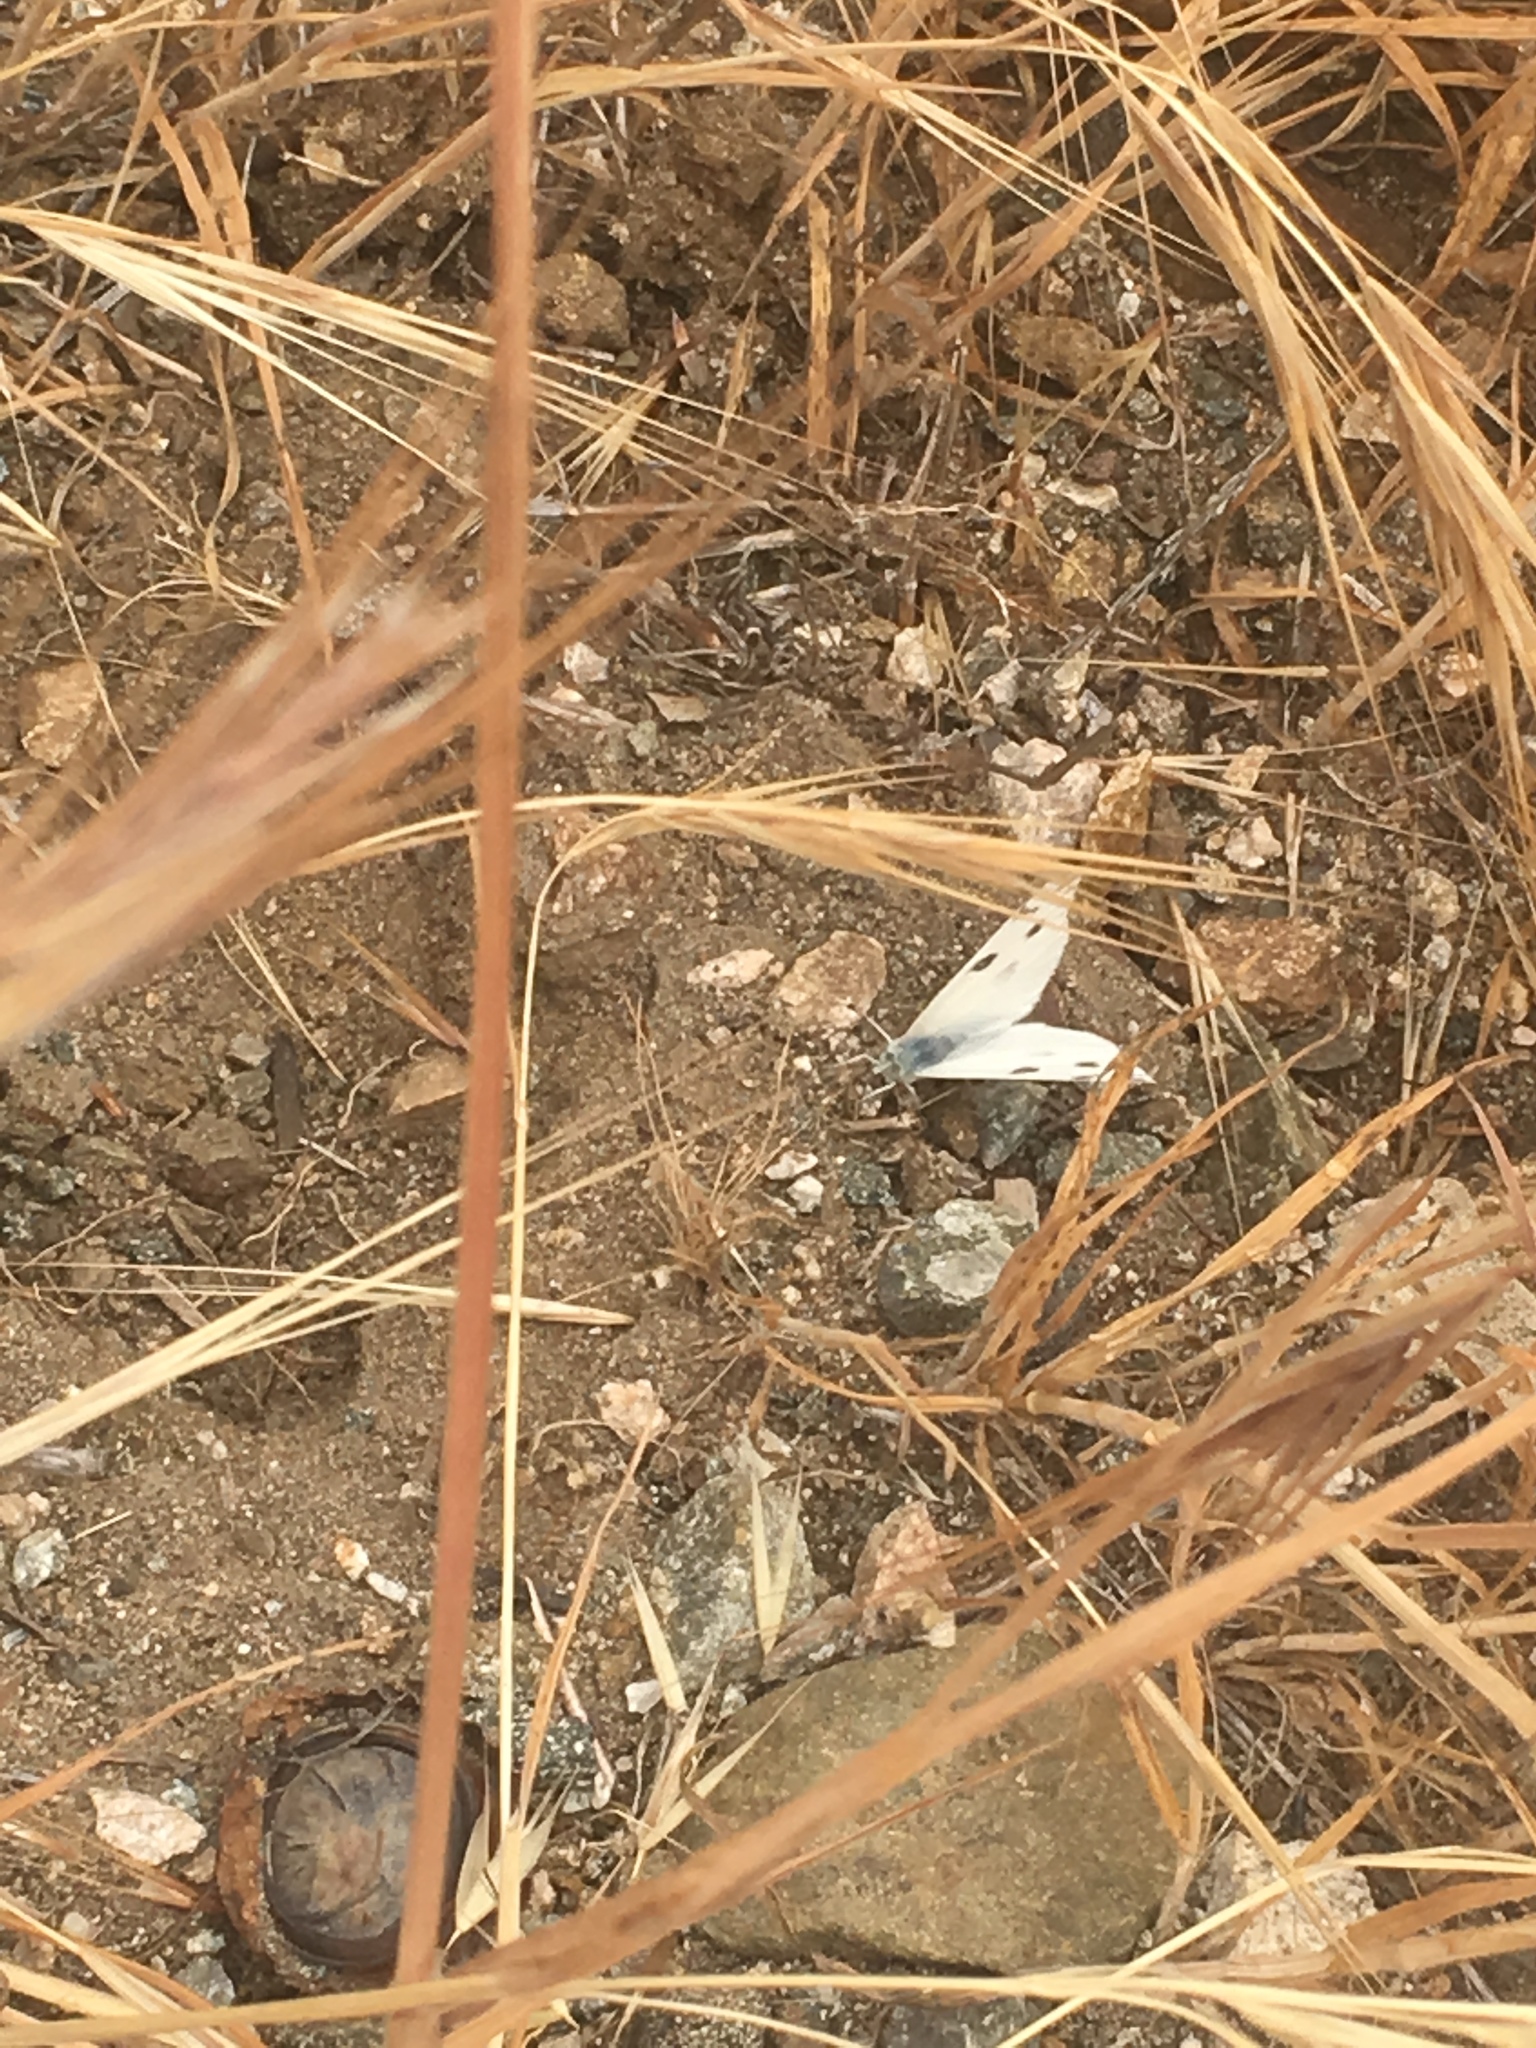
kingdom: Animalia
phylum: Arthropoda
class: Insecta
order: Lepidoptera
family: Pieridae
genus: Pontia
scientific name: Pontia protodice
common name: Checkered white
